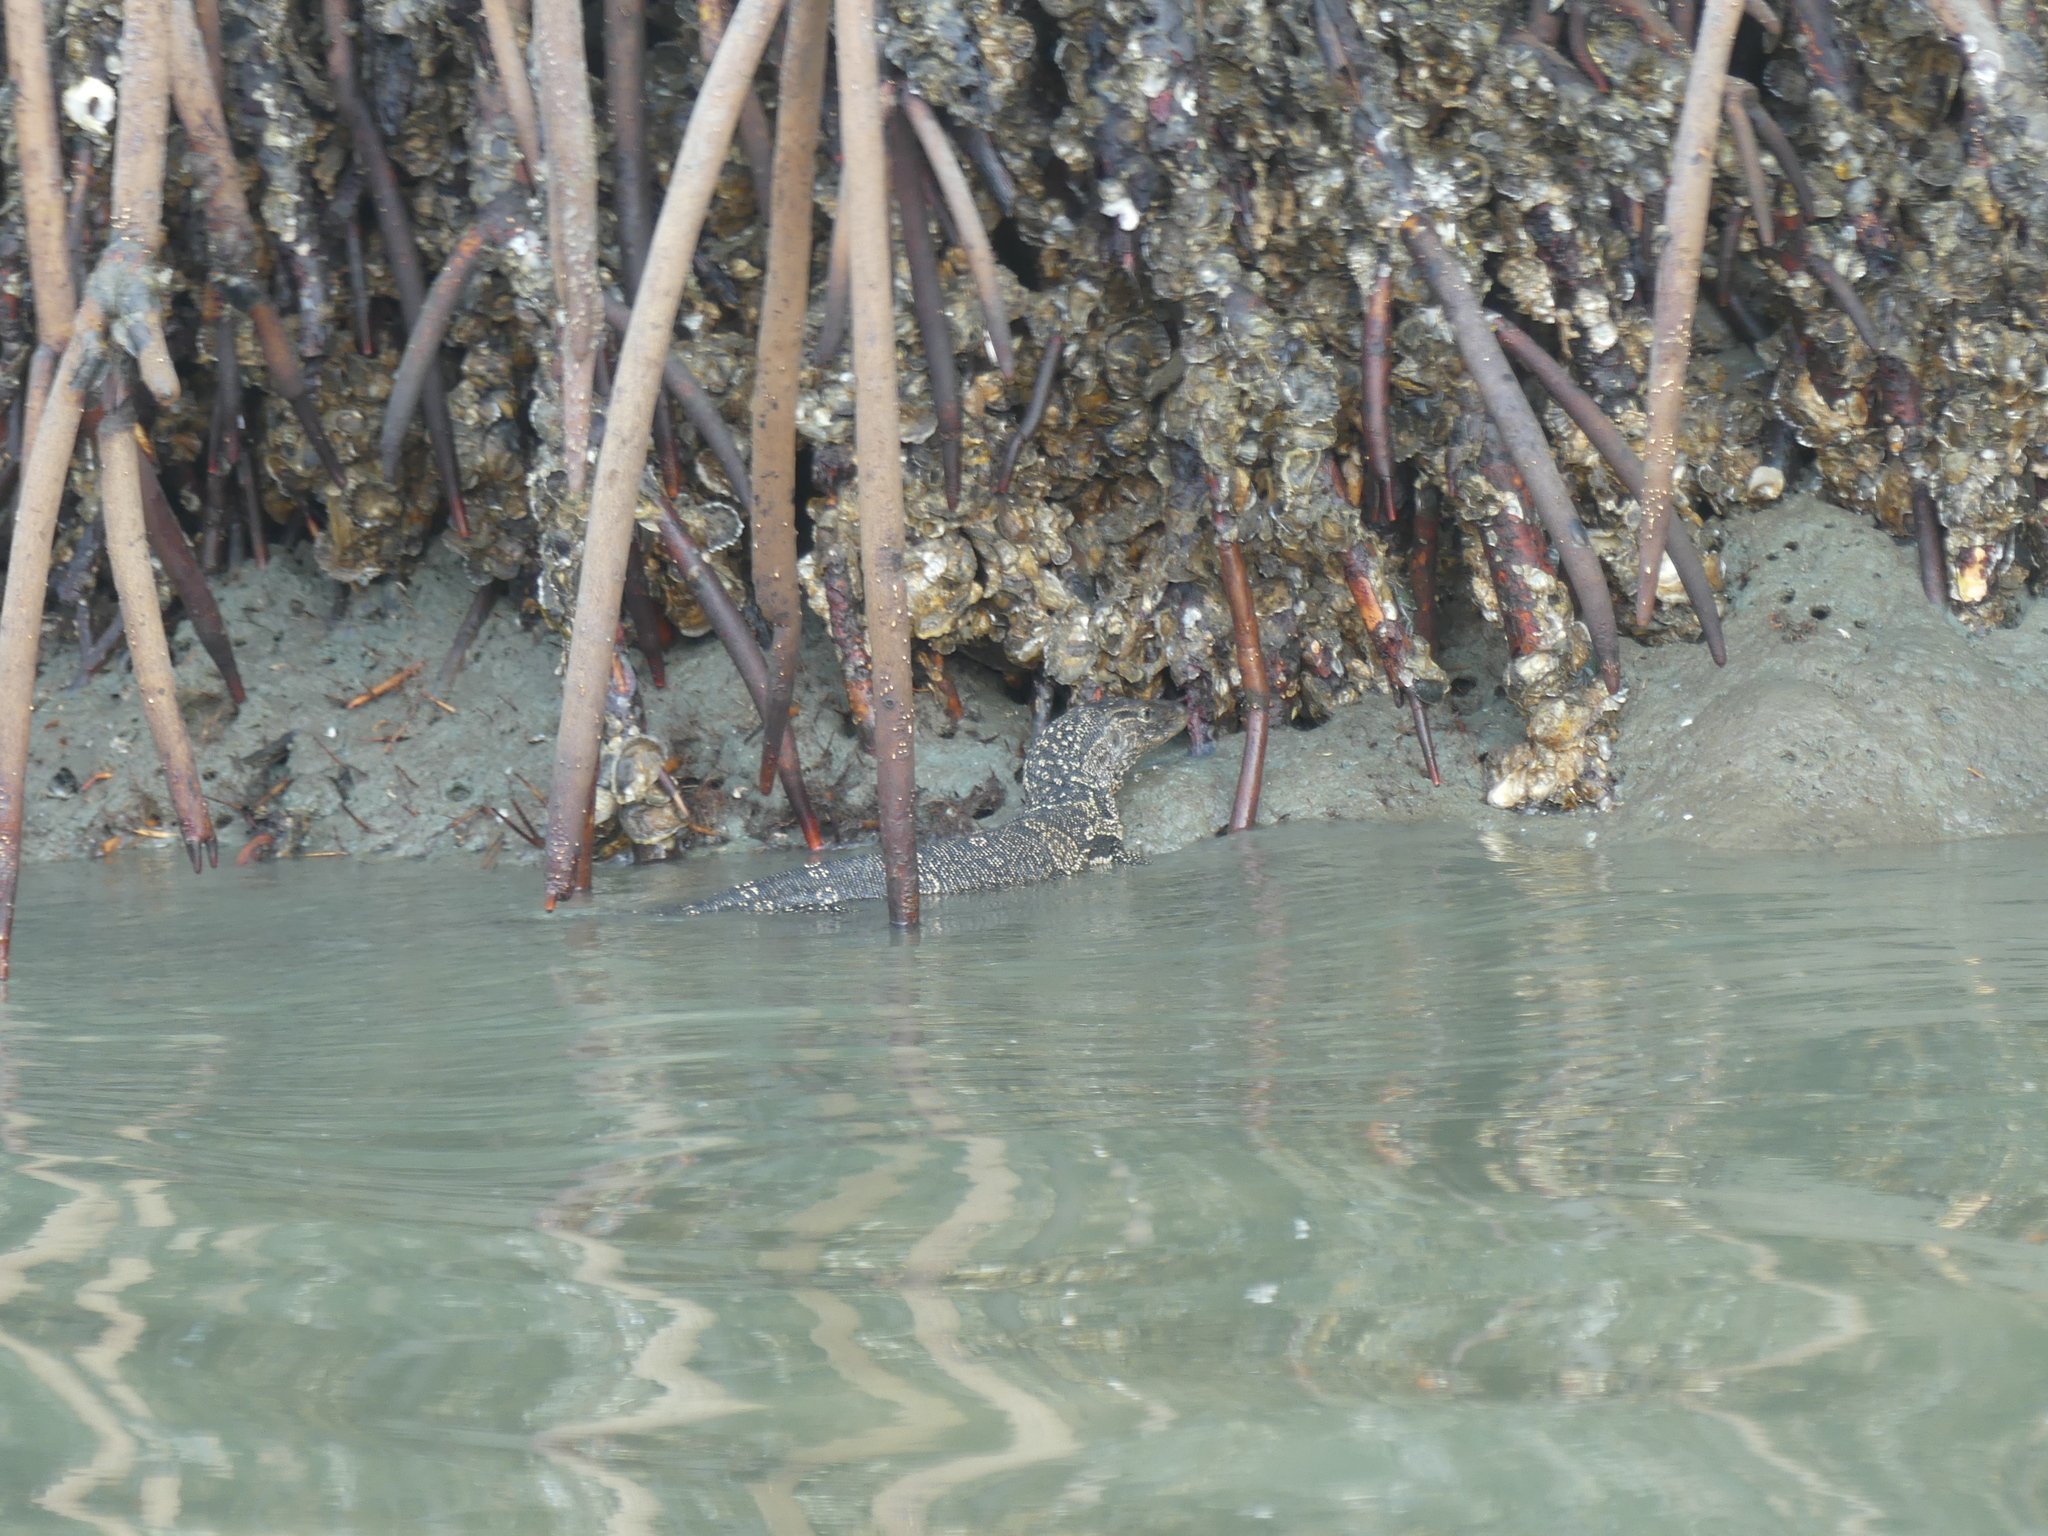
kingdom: Animalia
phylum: Chordata
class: Squamata
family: Varanidae
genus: Varanus
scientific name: Varanus salvator
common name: Common water monitor
